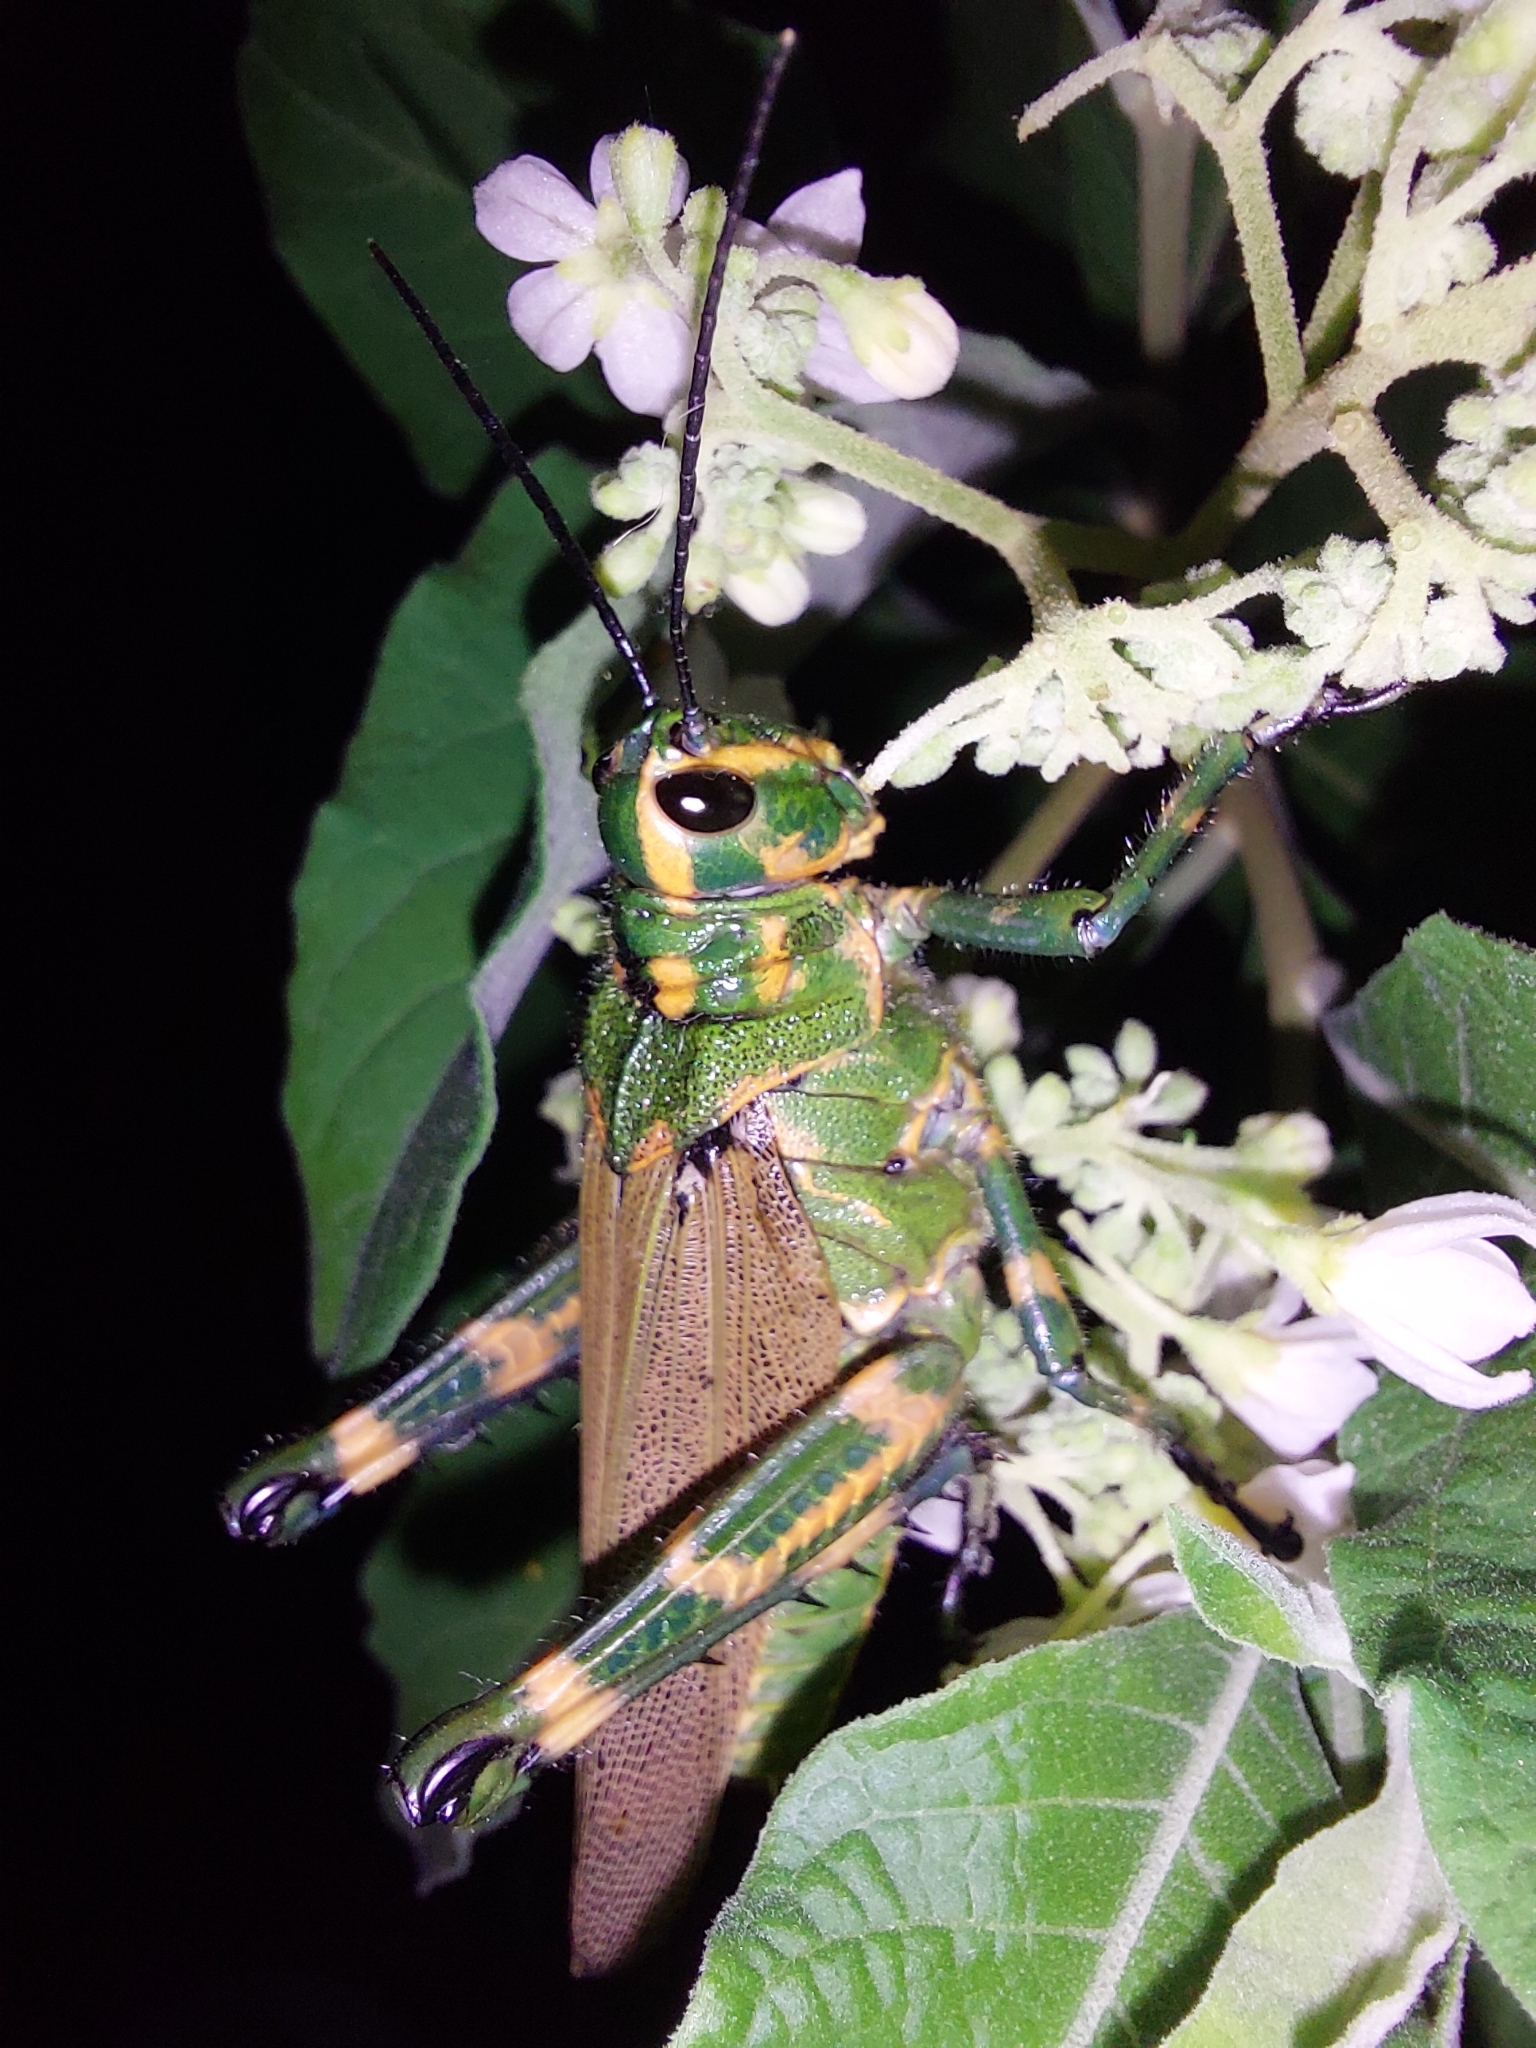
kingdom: Animalia
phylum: Arthropoda
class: Insecta
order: Orthoptera
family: Romaleidae
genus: Chromacris
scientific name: Chromacris speciosa
